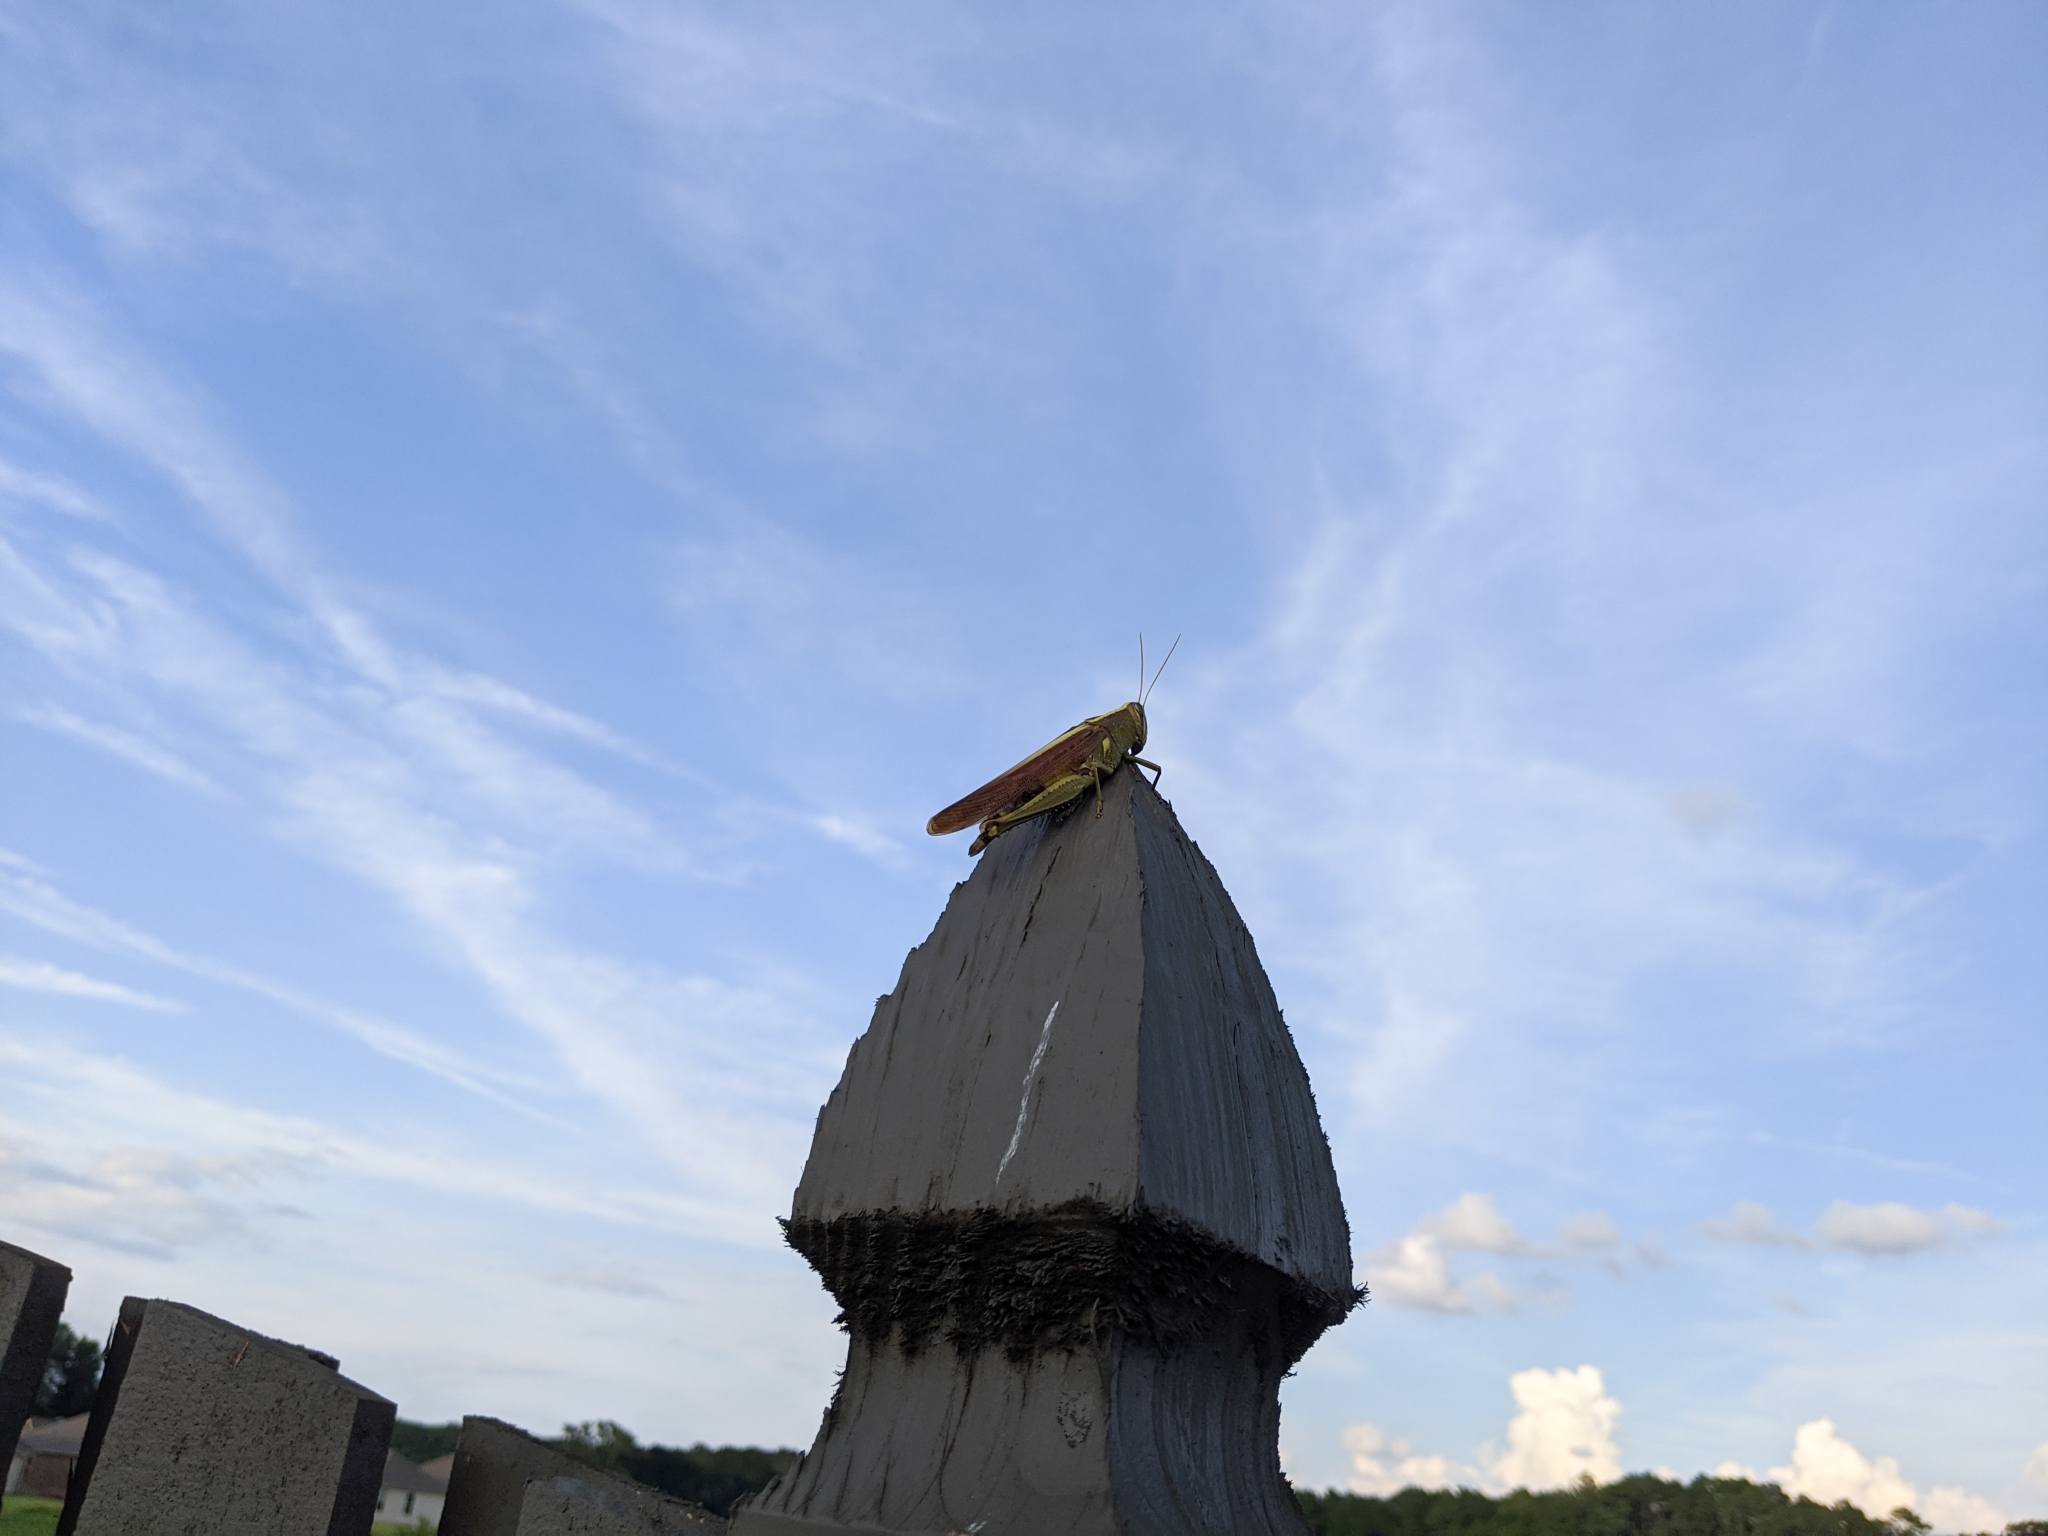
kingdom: Animalia
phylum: Arthropoda
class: Insecta
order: Orthoptera
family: Acrididae
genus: Schistocerca
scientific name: Schistocerca obscura
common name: Obscure bird grasshopper
